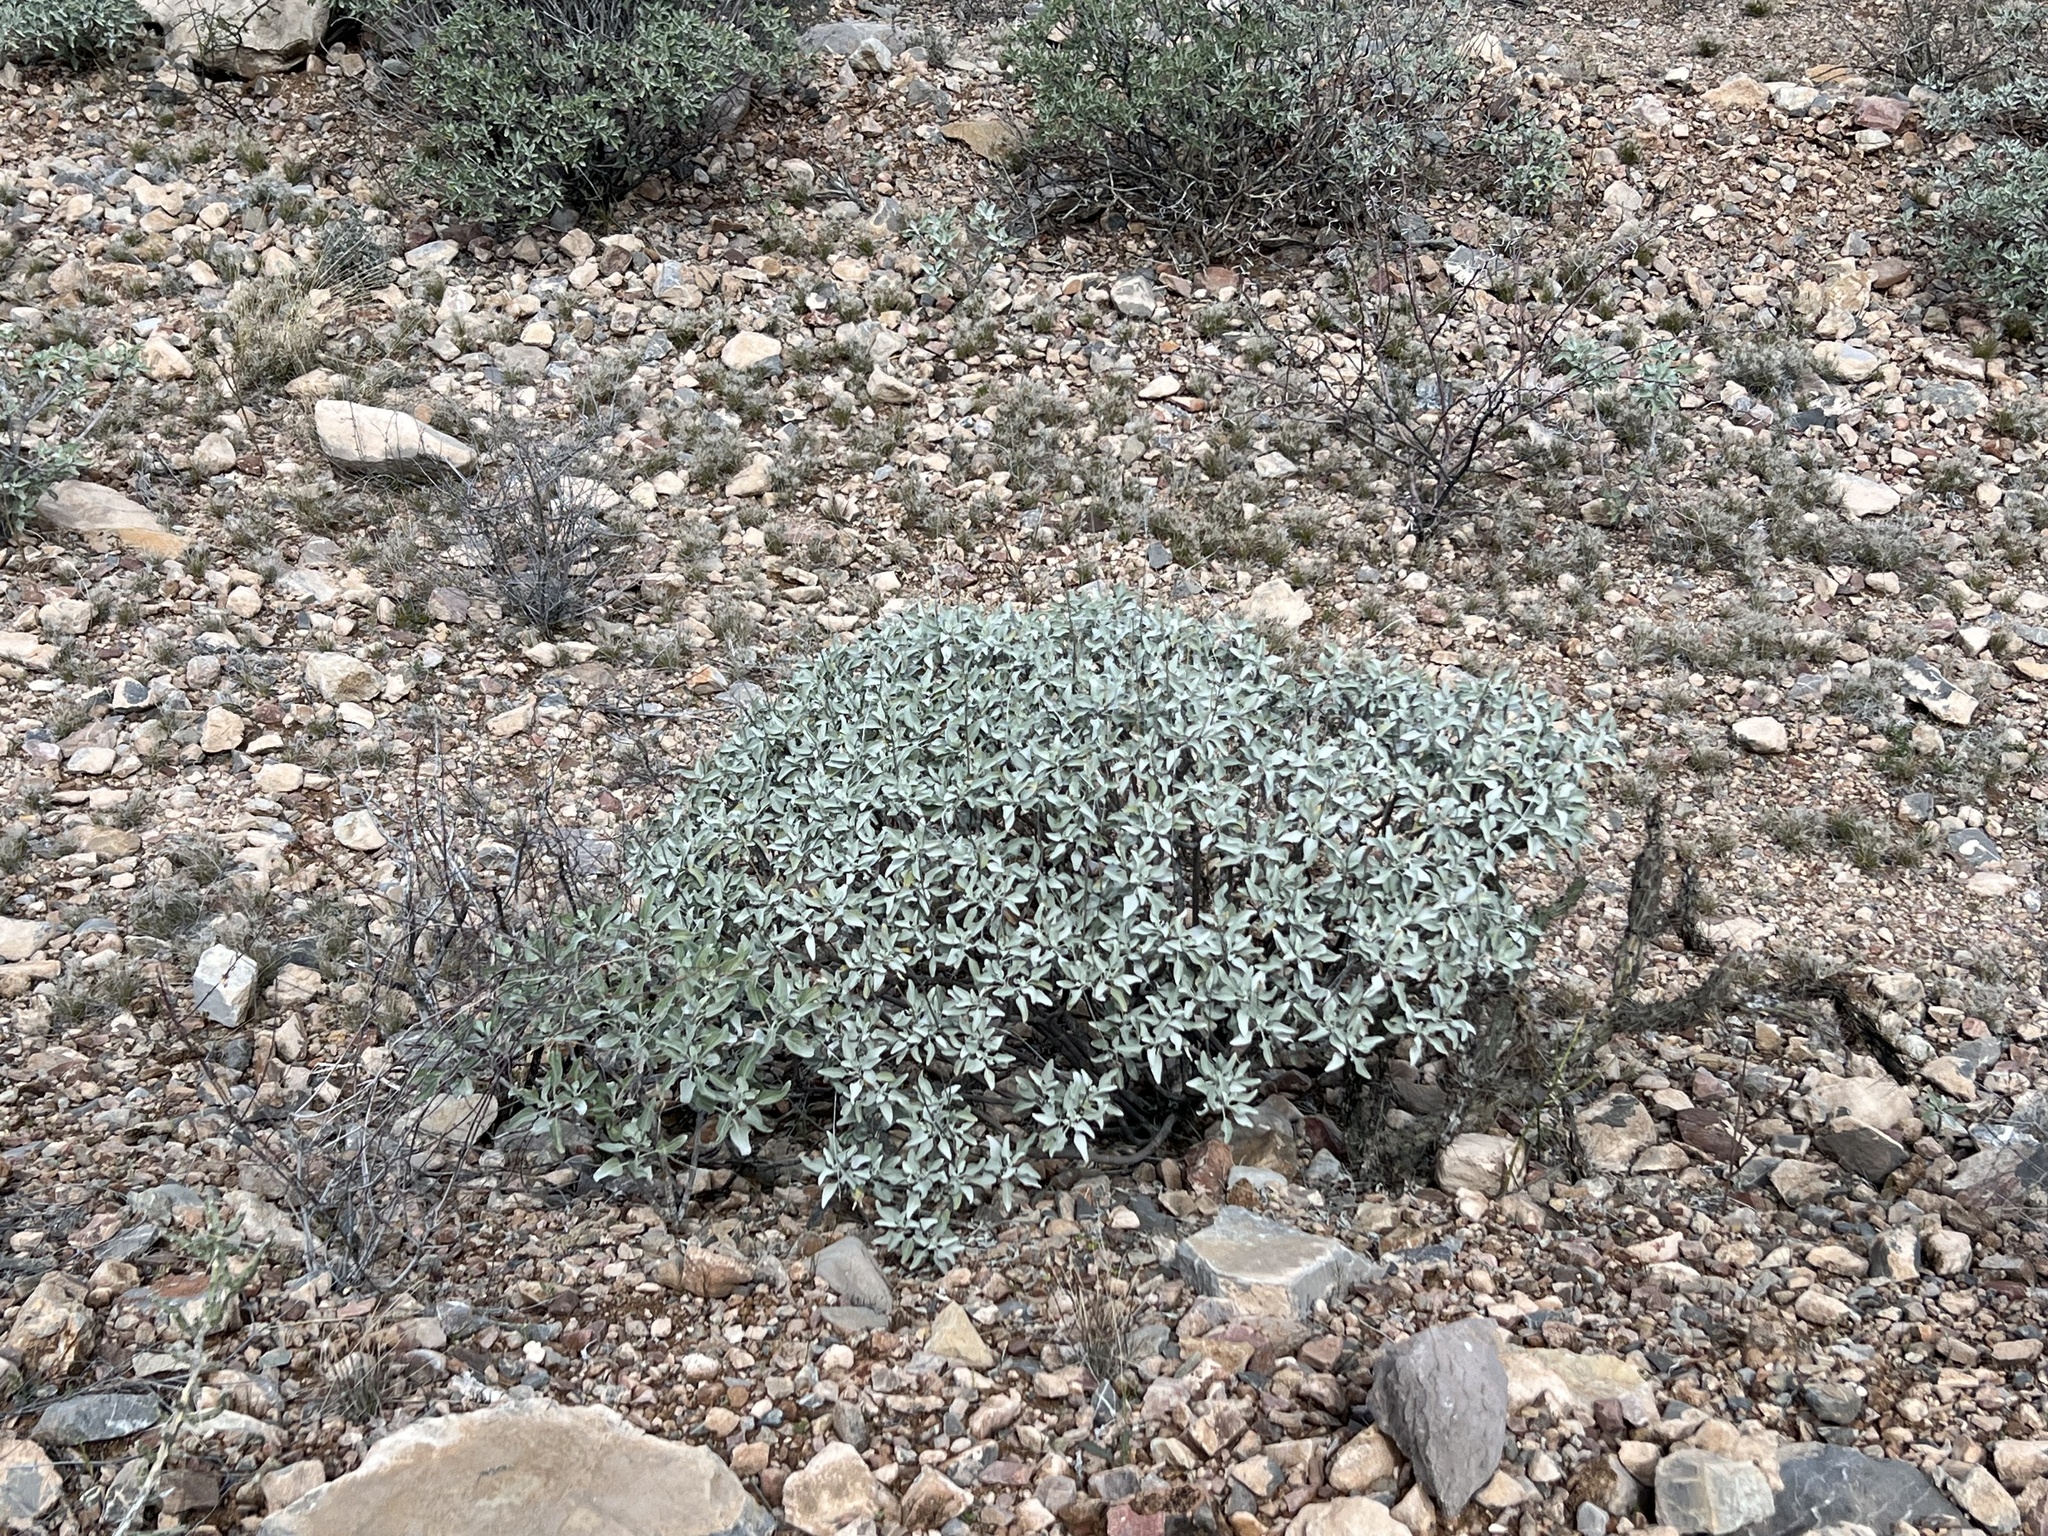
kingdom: Plantae
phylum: Tracheophyta
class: Magnoliopsida
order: Asterales
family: Asteraceae
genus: Encelia
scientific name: Encelia farinosa
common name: Brittlebush
